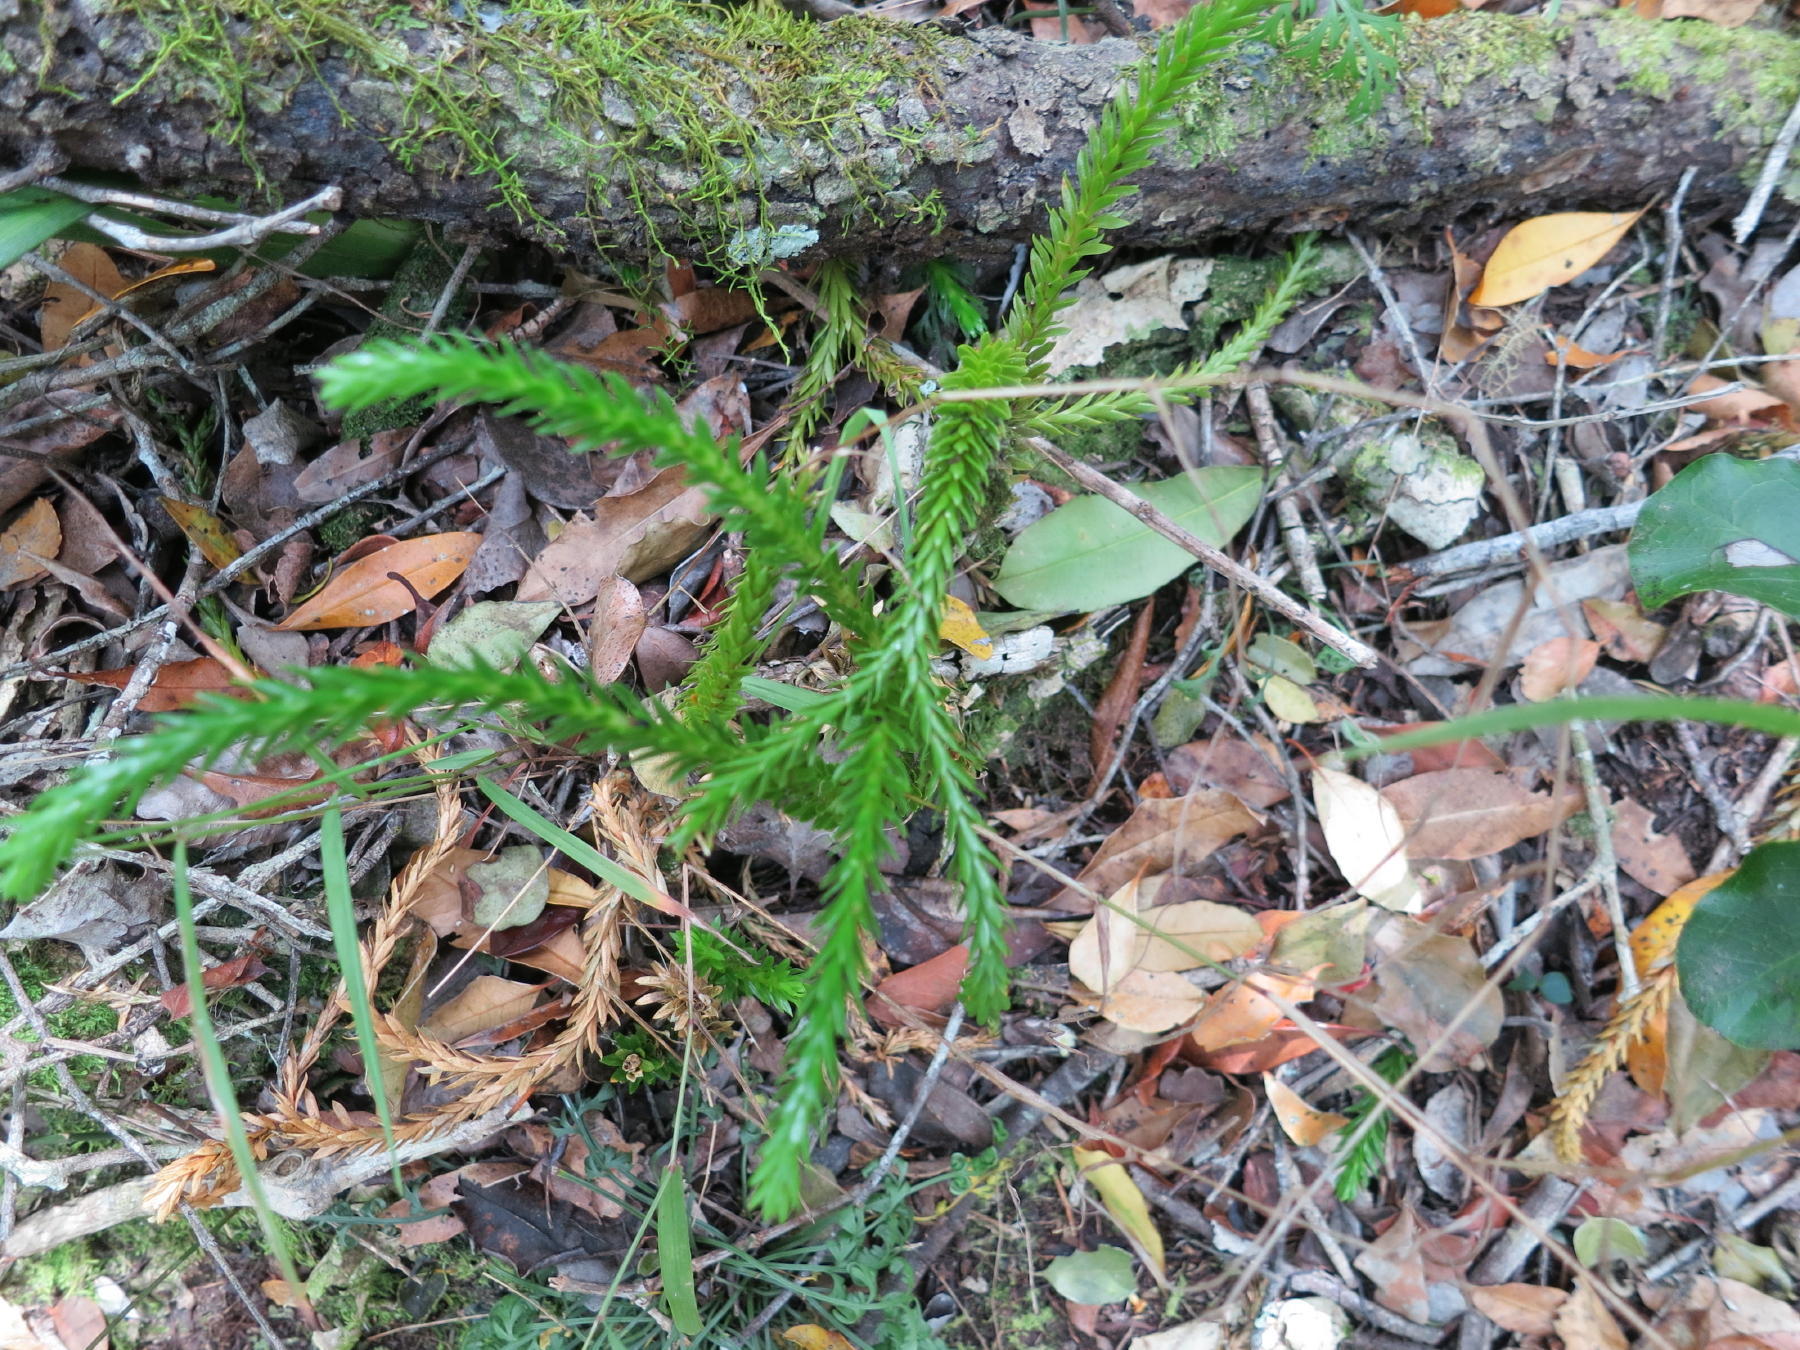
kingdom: Plantae
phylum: Tracheophyta
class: Lycopodiopsida
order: Lycopodiales
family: Lycopodiaceae
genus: Phlegmariurus
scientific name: Phlegmariurus gnidioides
